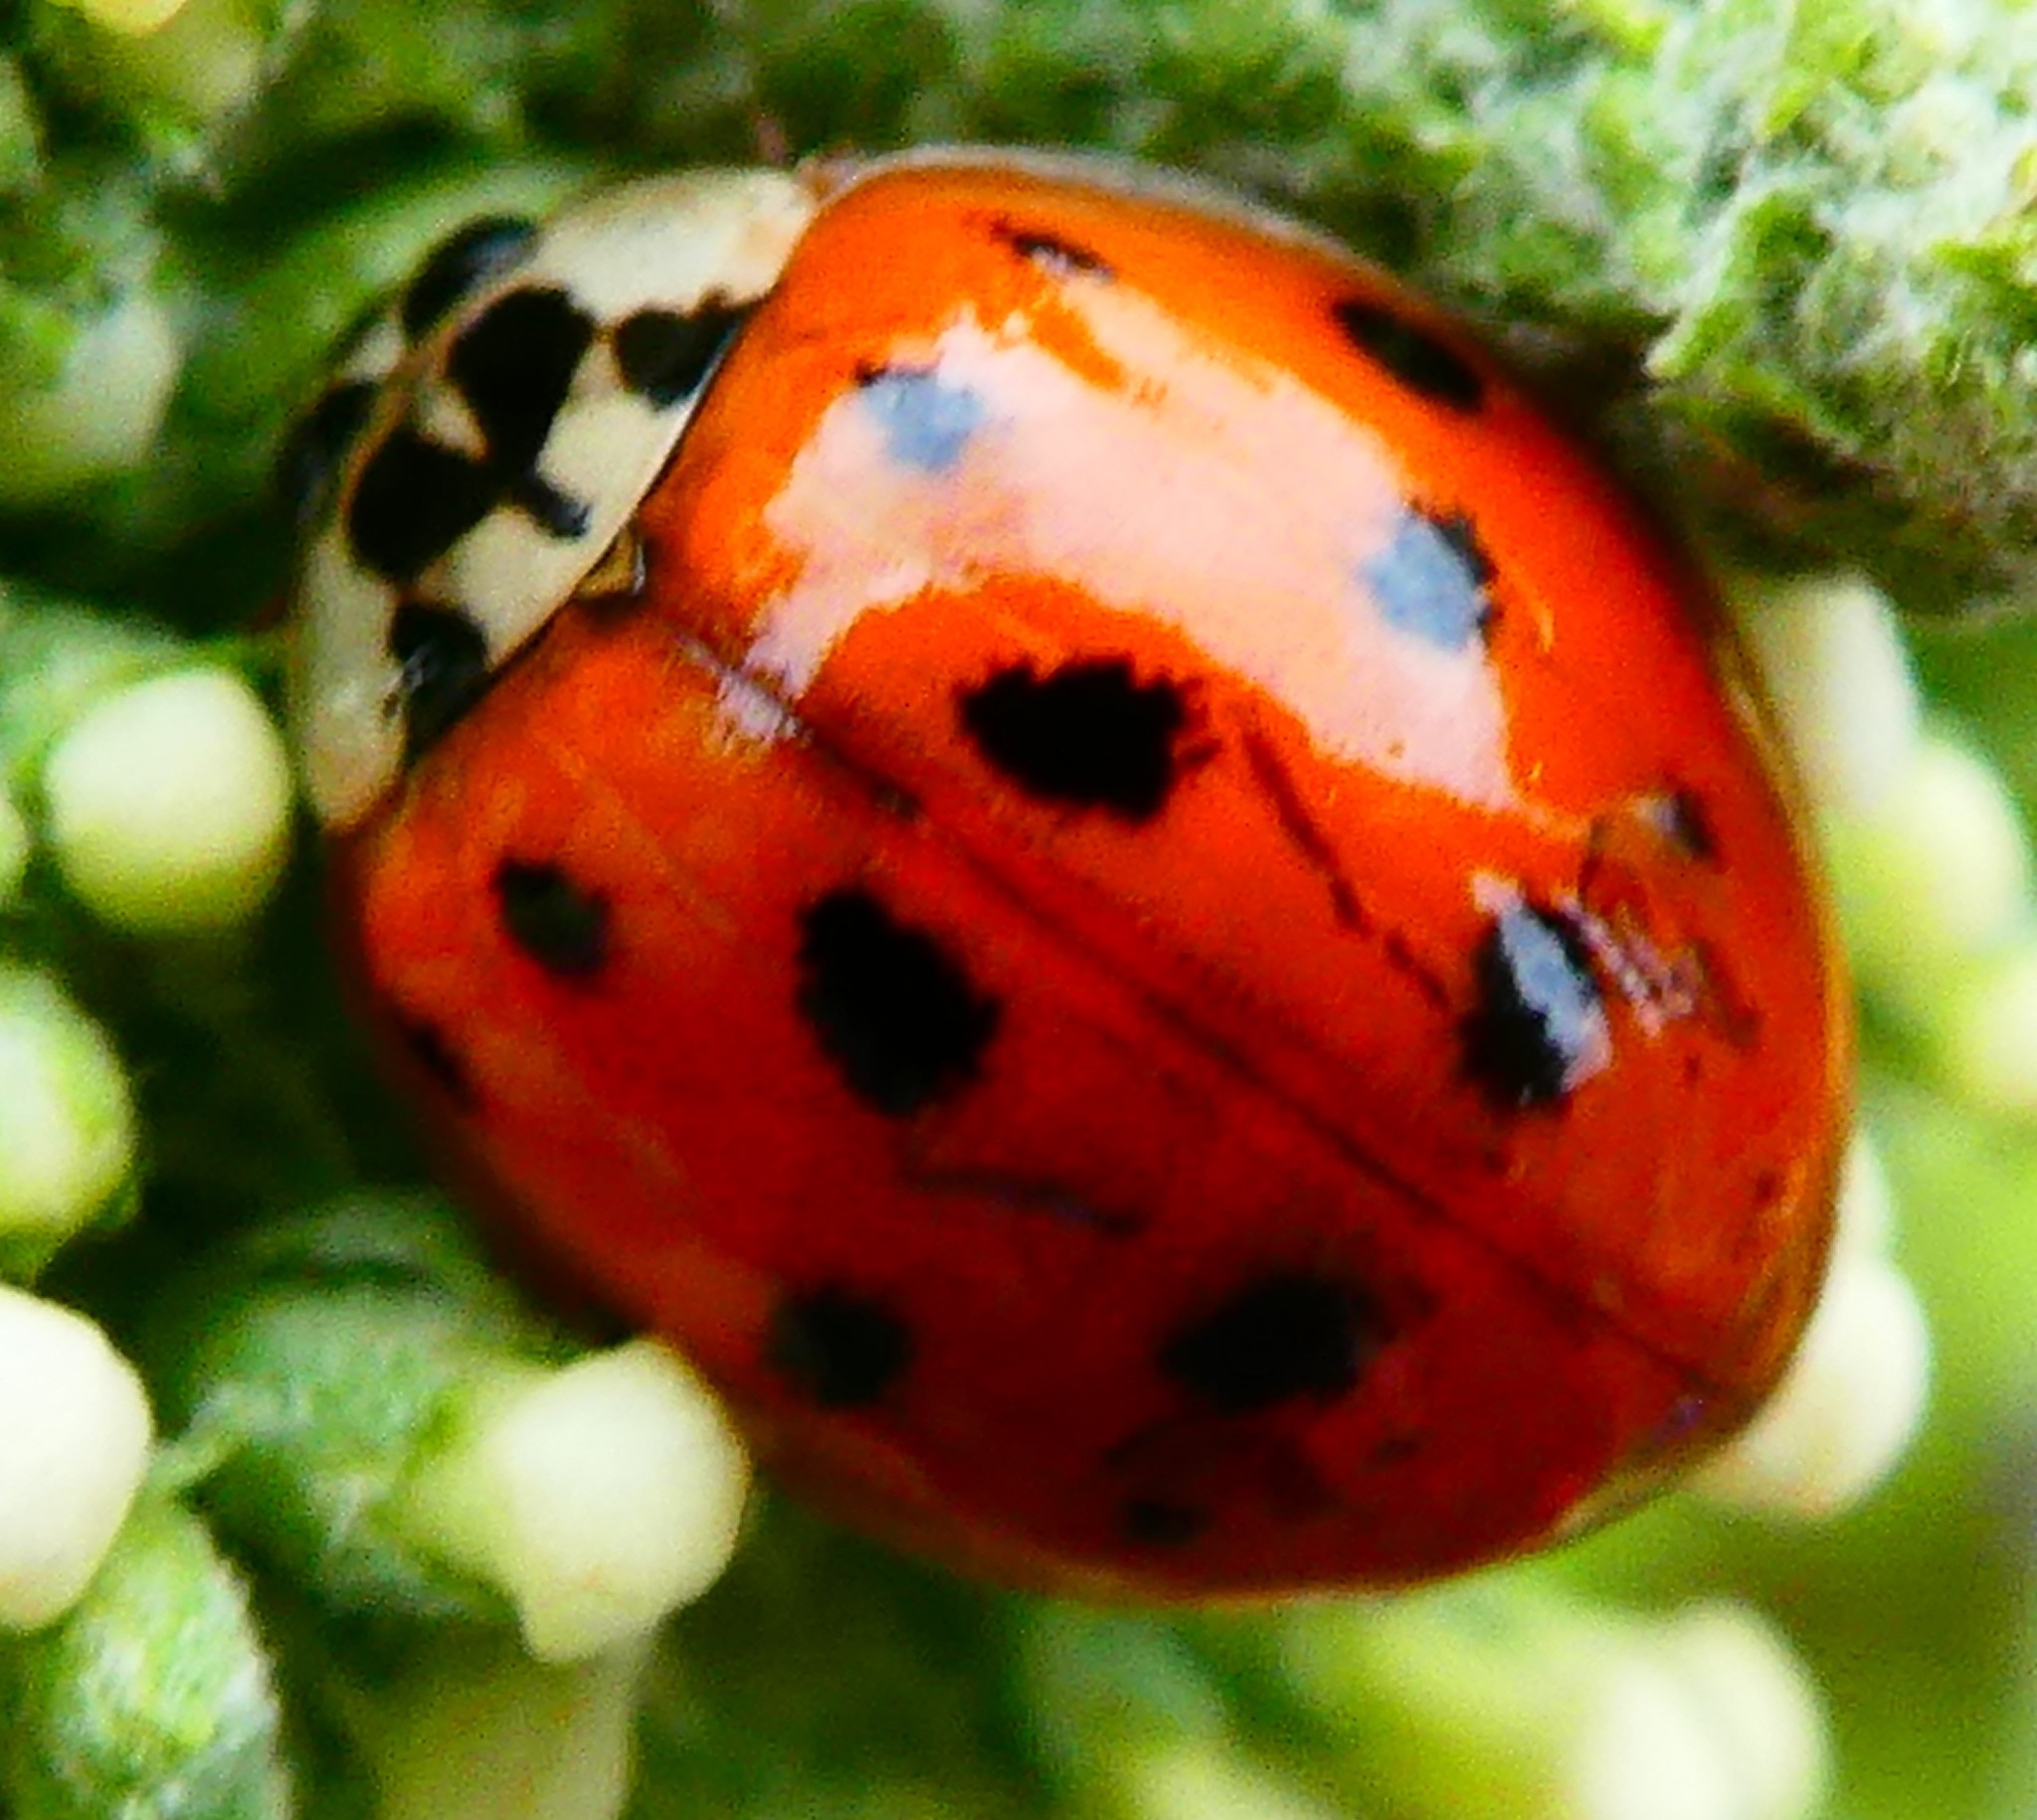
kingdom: Animalia
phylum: Arthropoda
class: Insecta
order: Coleoptera
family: Coccinellidae
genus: Harmonia
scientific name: Harmonia axyridis
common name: Harlequin ladybird
